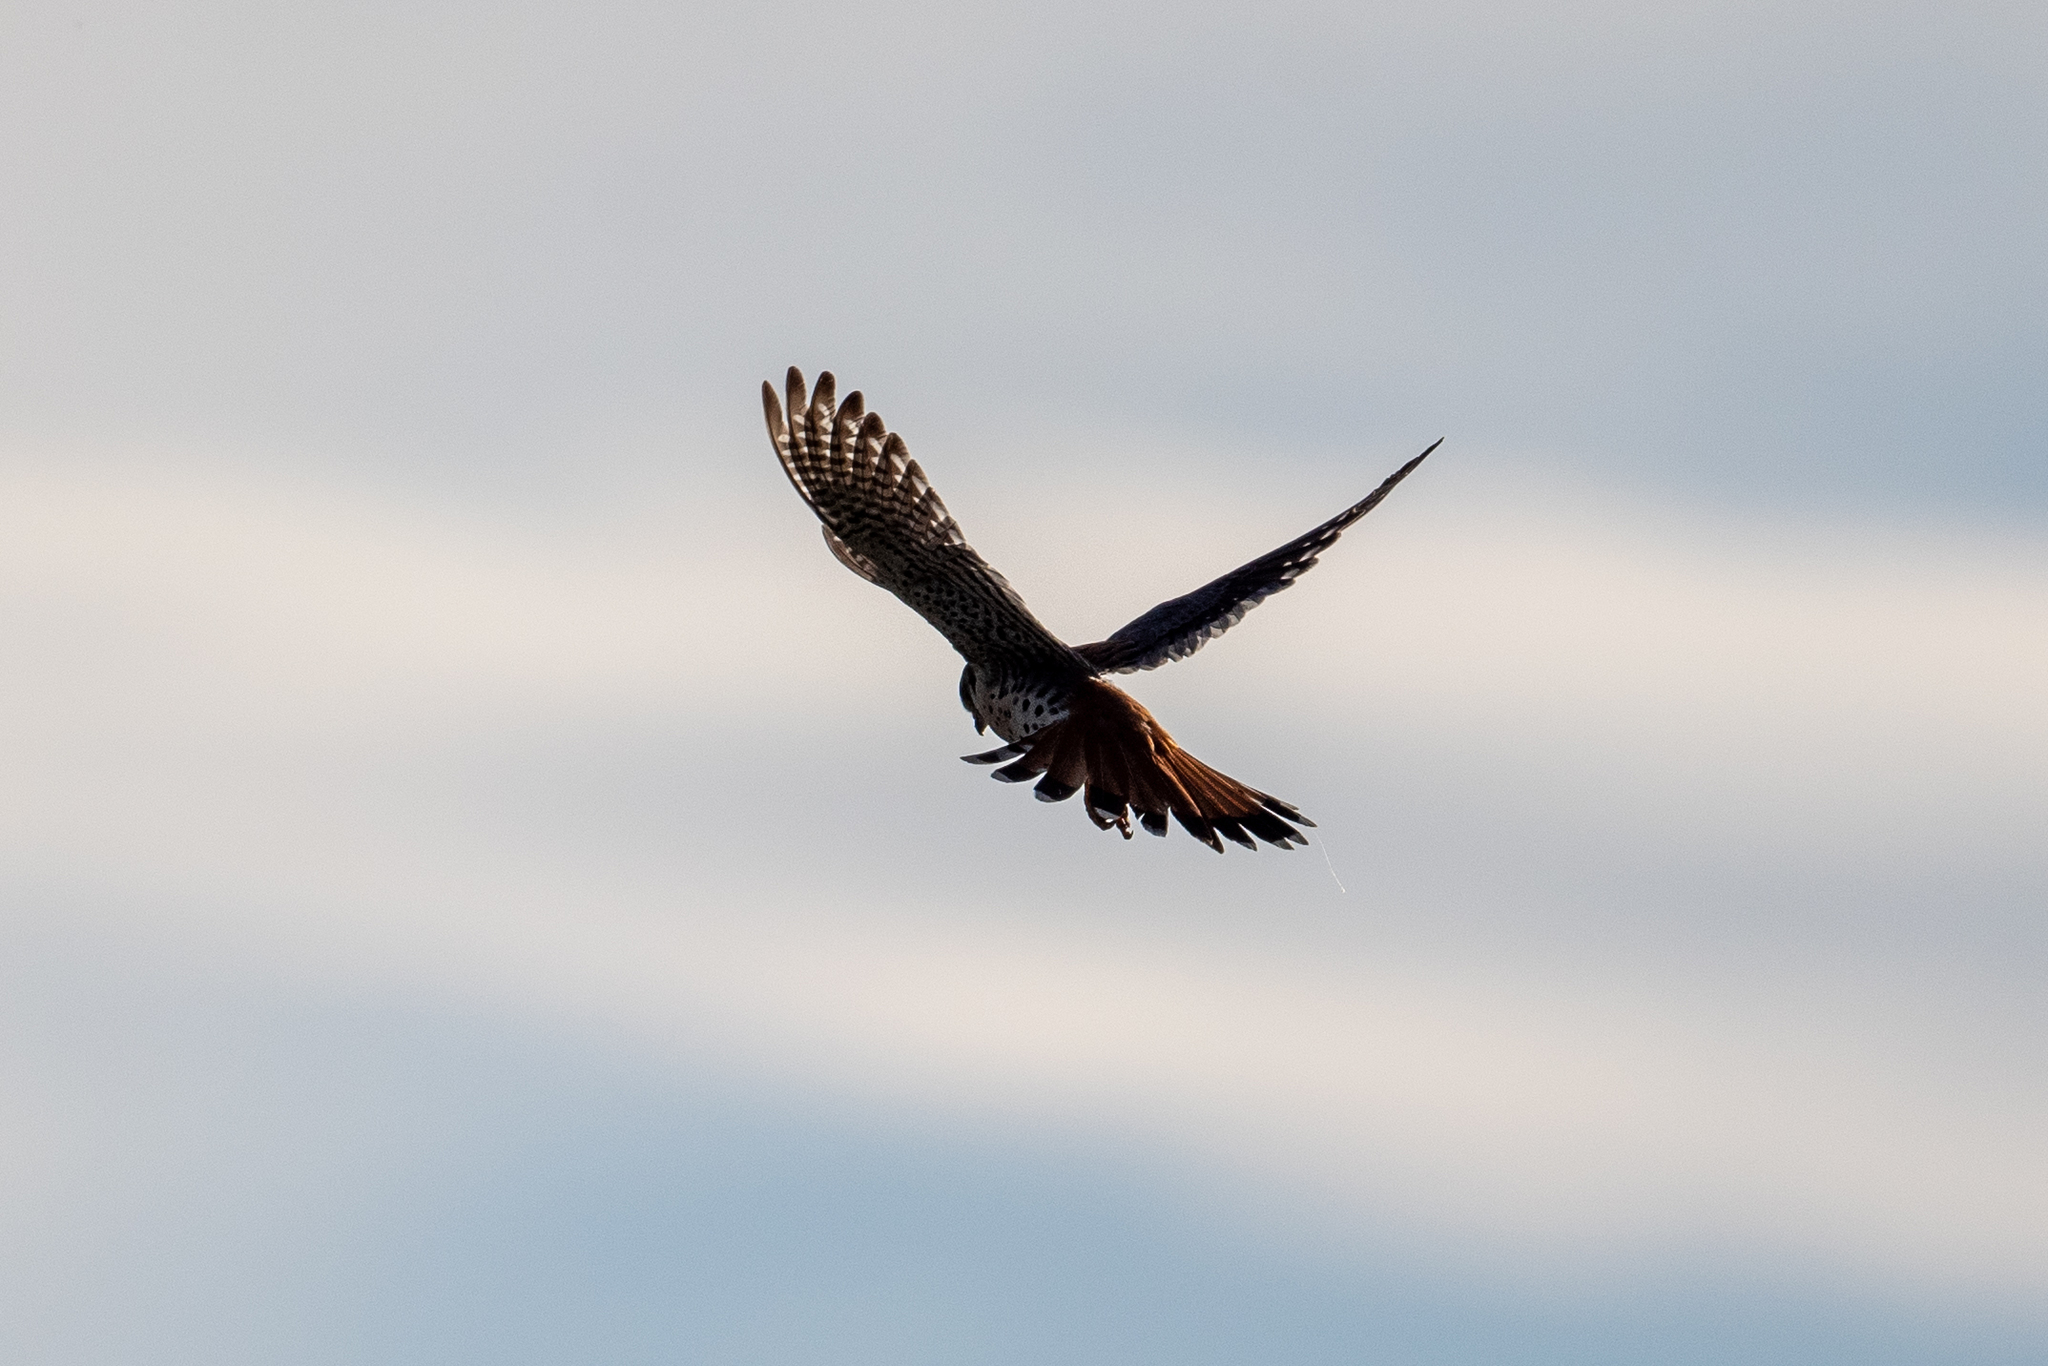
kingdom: Animalia
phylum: Chordata
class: Aves
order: Falconiformes
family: Falconidae
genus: Falco
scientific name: Falco sparverius
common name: American kestrel
